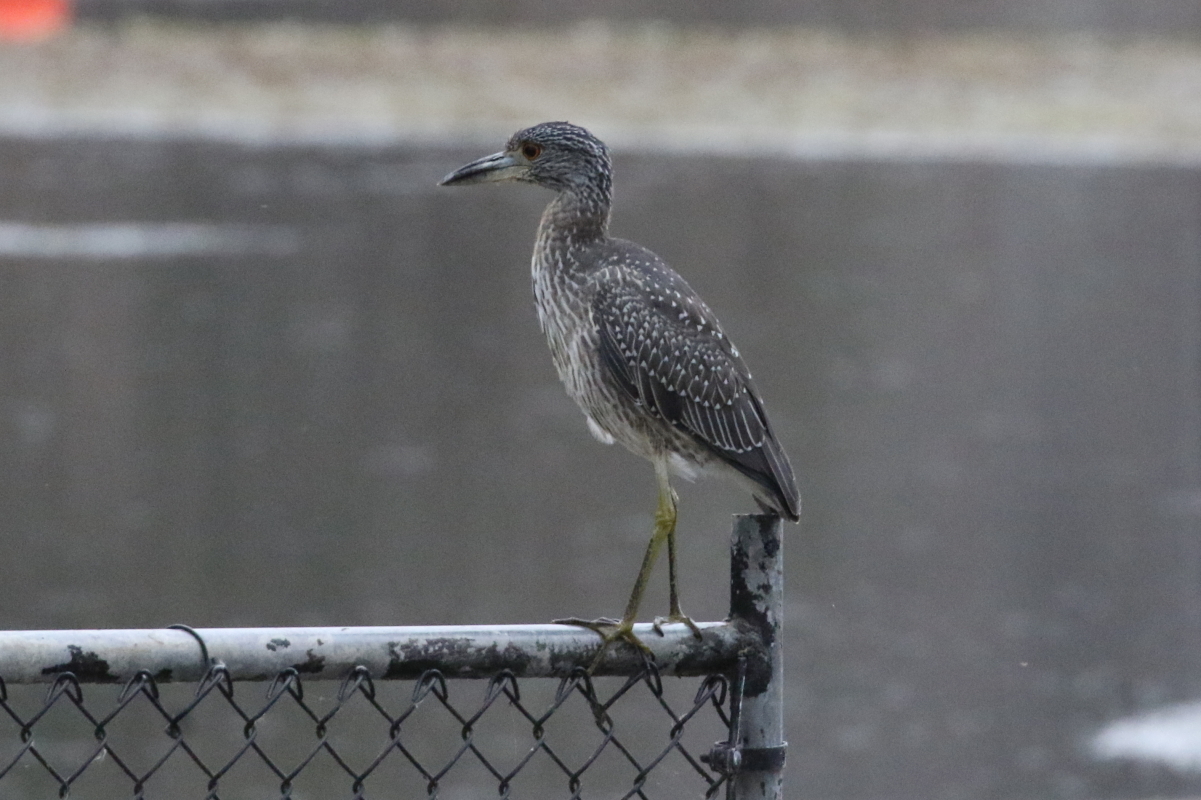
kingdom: Animalia
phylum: Chordata
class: Aves
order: Pelecaniformes
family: Ardeidae
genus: Nyctanassa
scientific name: Nyctanassa violacea
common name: Yellow-crowned night heron
